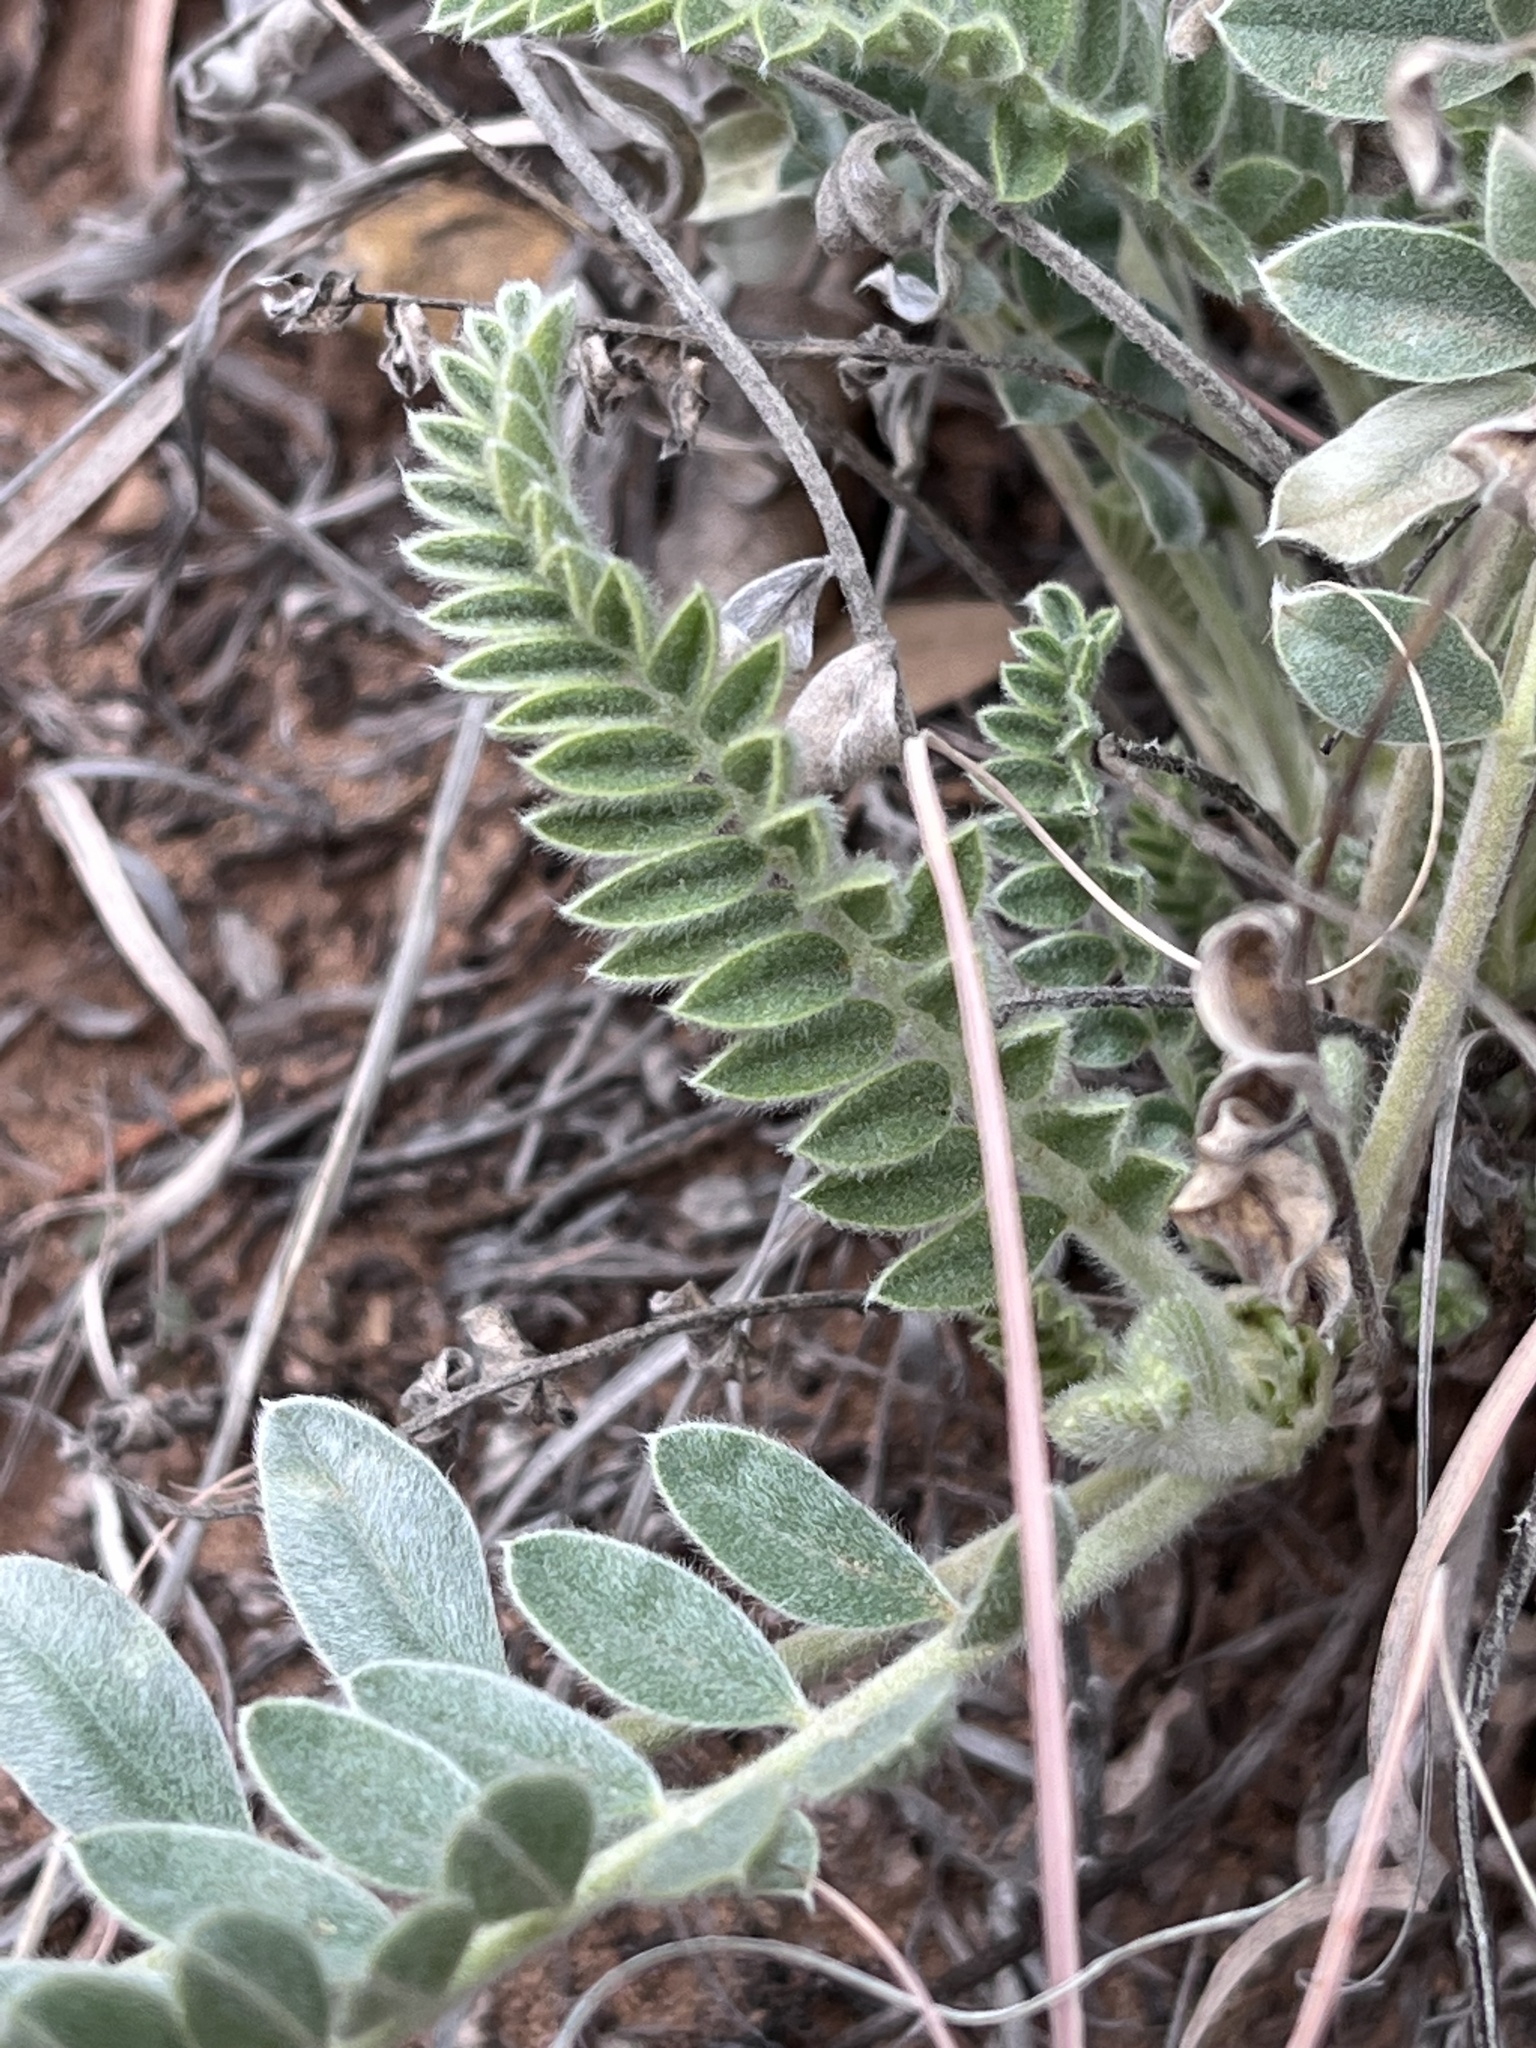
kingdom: Plantae
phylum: Tracheophyta
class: Magnoliopsida
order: Fabales
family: Fabaceae
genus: Astragalus
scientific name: Astragalus mollissimus
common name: Woolly locoweed
